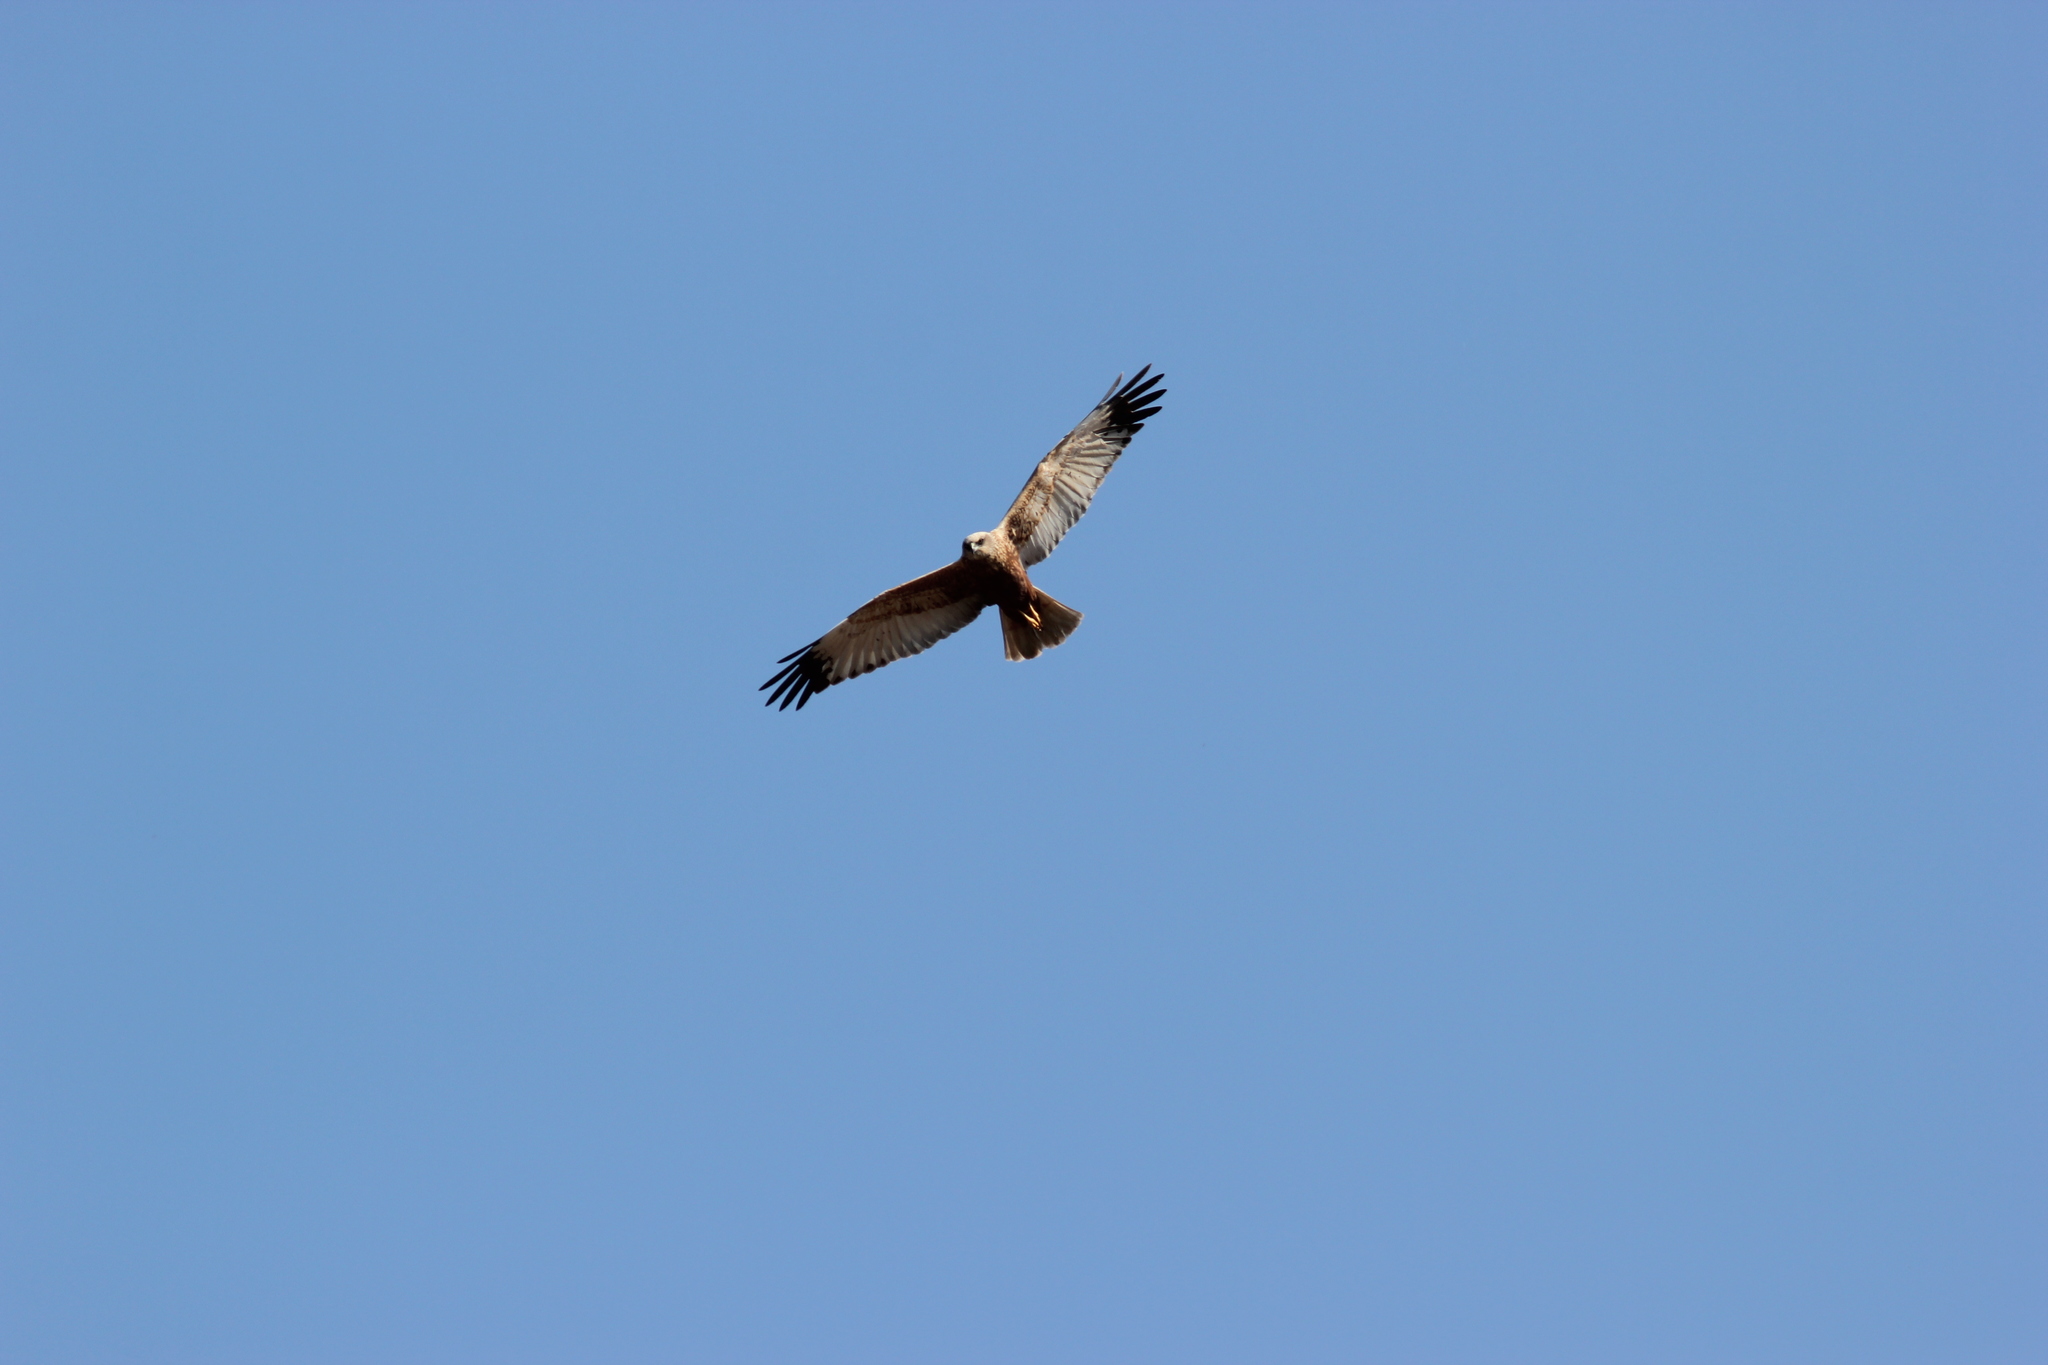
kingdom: Animalia
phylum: Chordata
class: Aves
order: Accipitriformes
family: Accipitridae
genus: Circus
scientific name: Circus aeruginosus
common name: Western marsh harrier
